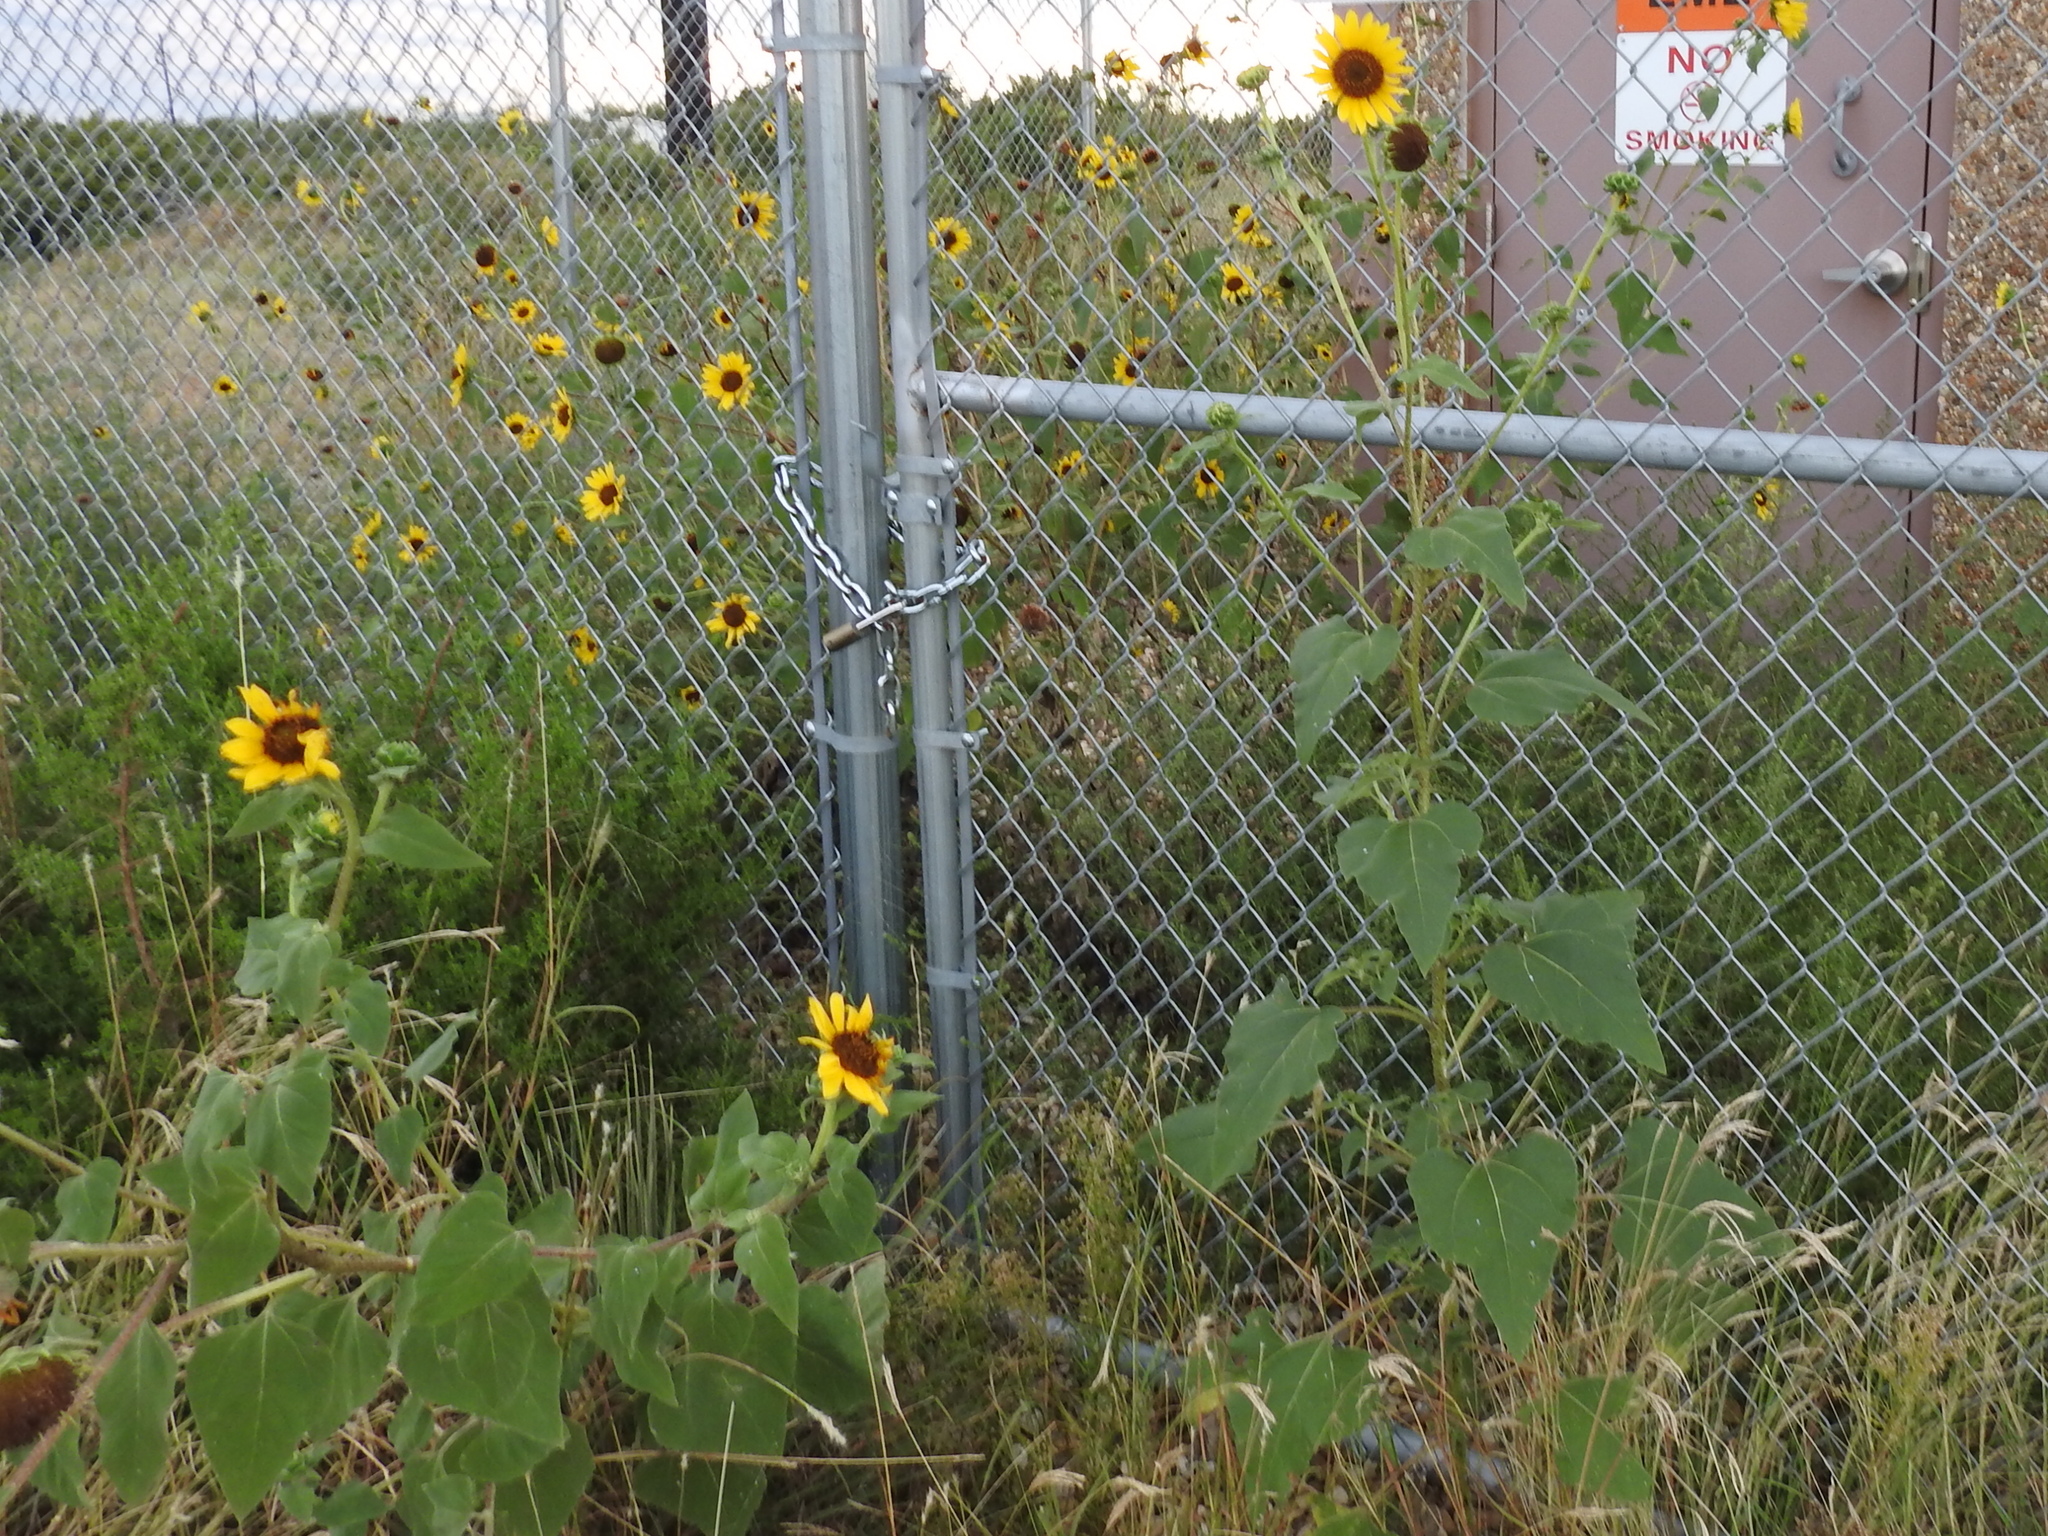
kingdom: Plantae
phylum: Tracheophyta
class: Magnoliopsida
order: Asterales
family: Asteraceae
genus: Helianthus
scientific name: Helianthus annuus
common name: Sunflower
